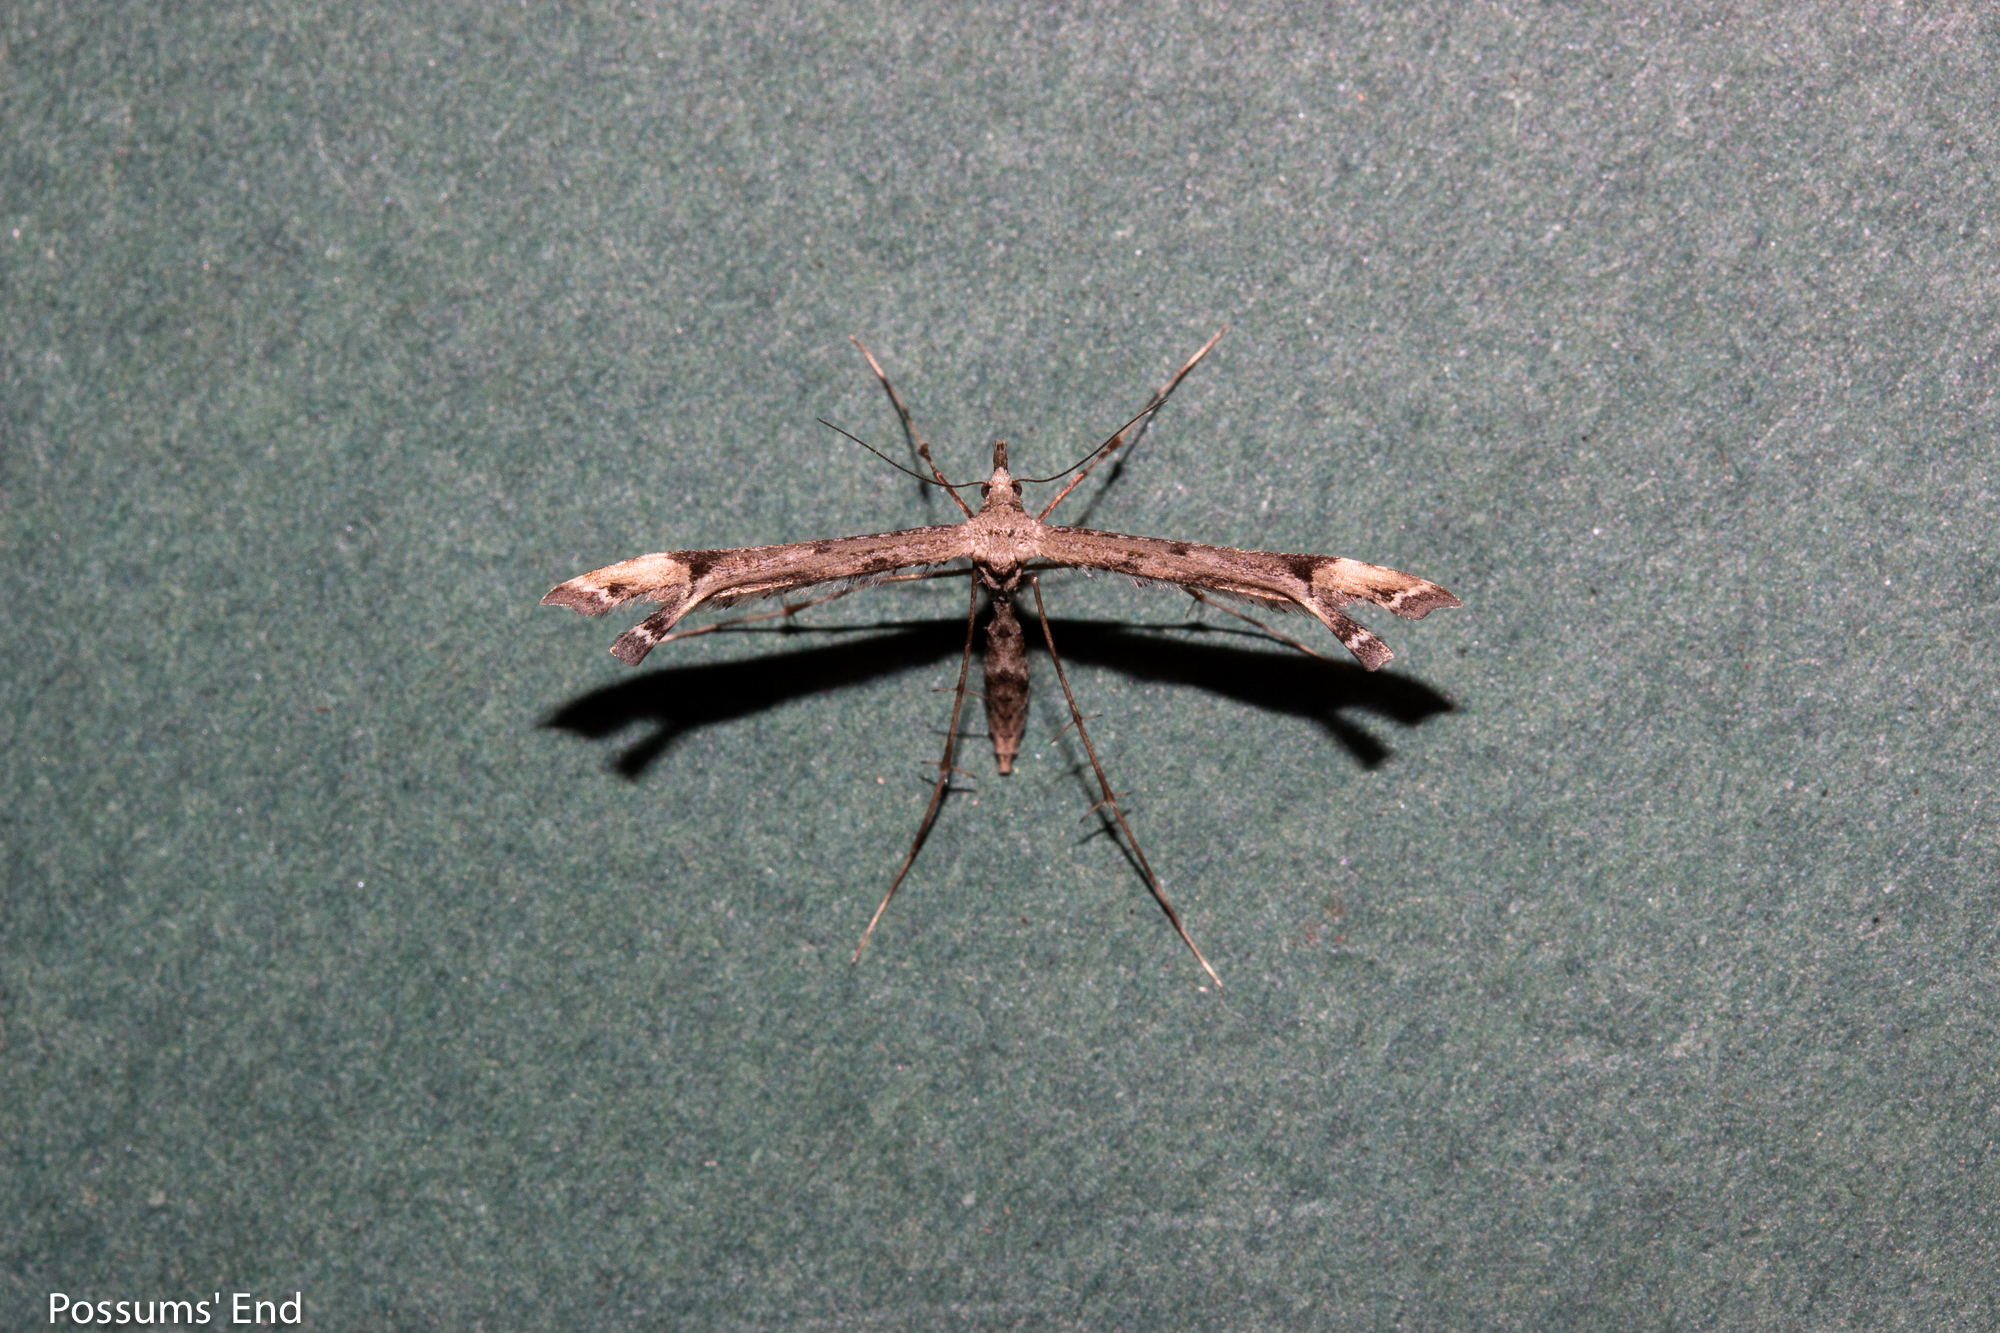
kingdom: Animalia
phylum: Arthropoda
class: Insecta
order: Lepidoptera
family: Pterophoridae
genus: Amblyptilia
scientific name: Amblyptilia repletalis
